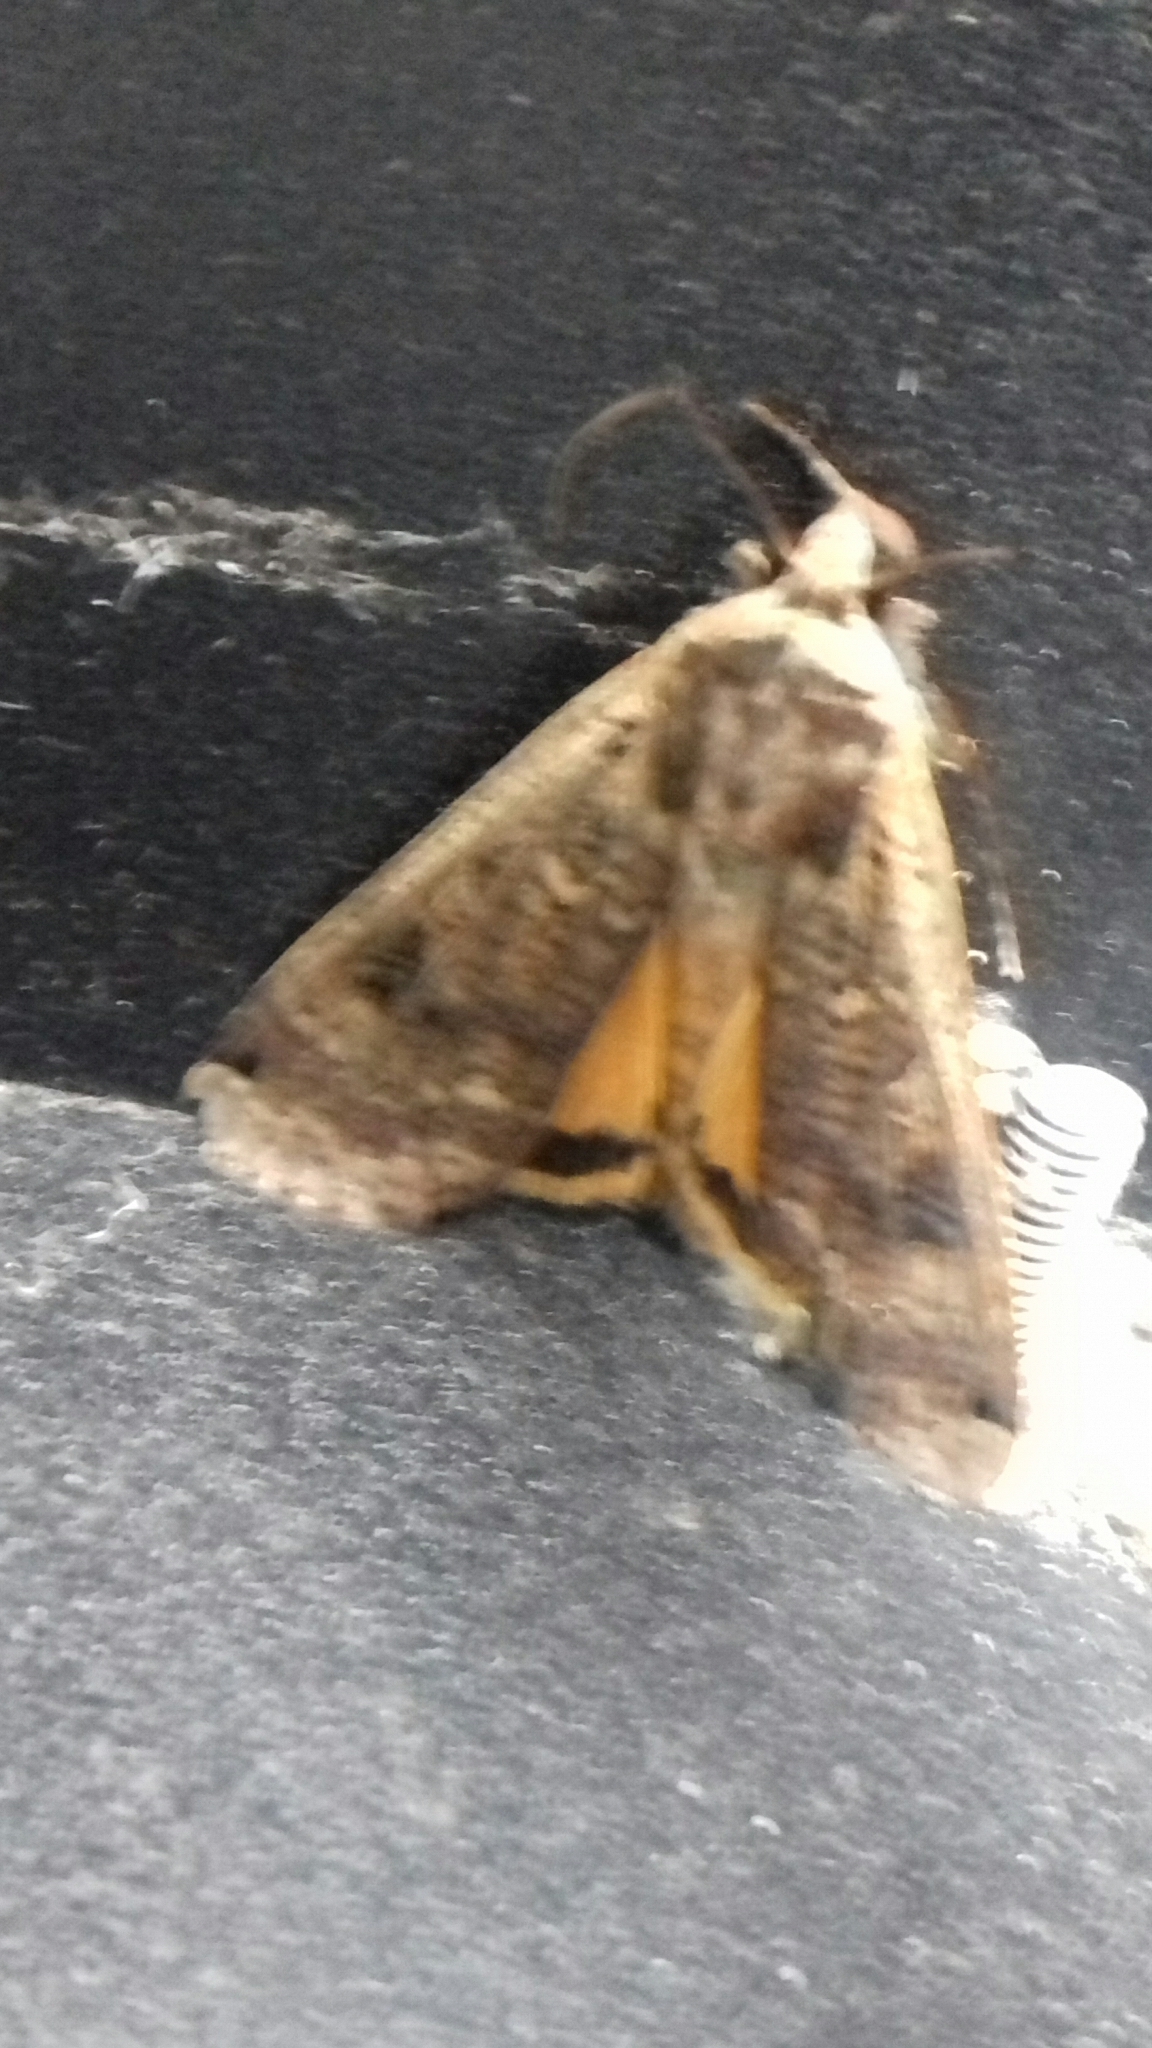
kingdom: Animalia
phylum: Arthropoda
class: Insecta
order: Lepidoptera
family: Noctuidae
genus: Noctua
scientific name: Noctua pronuba
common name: Large yellow underwing
